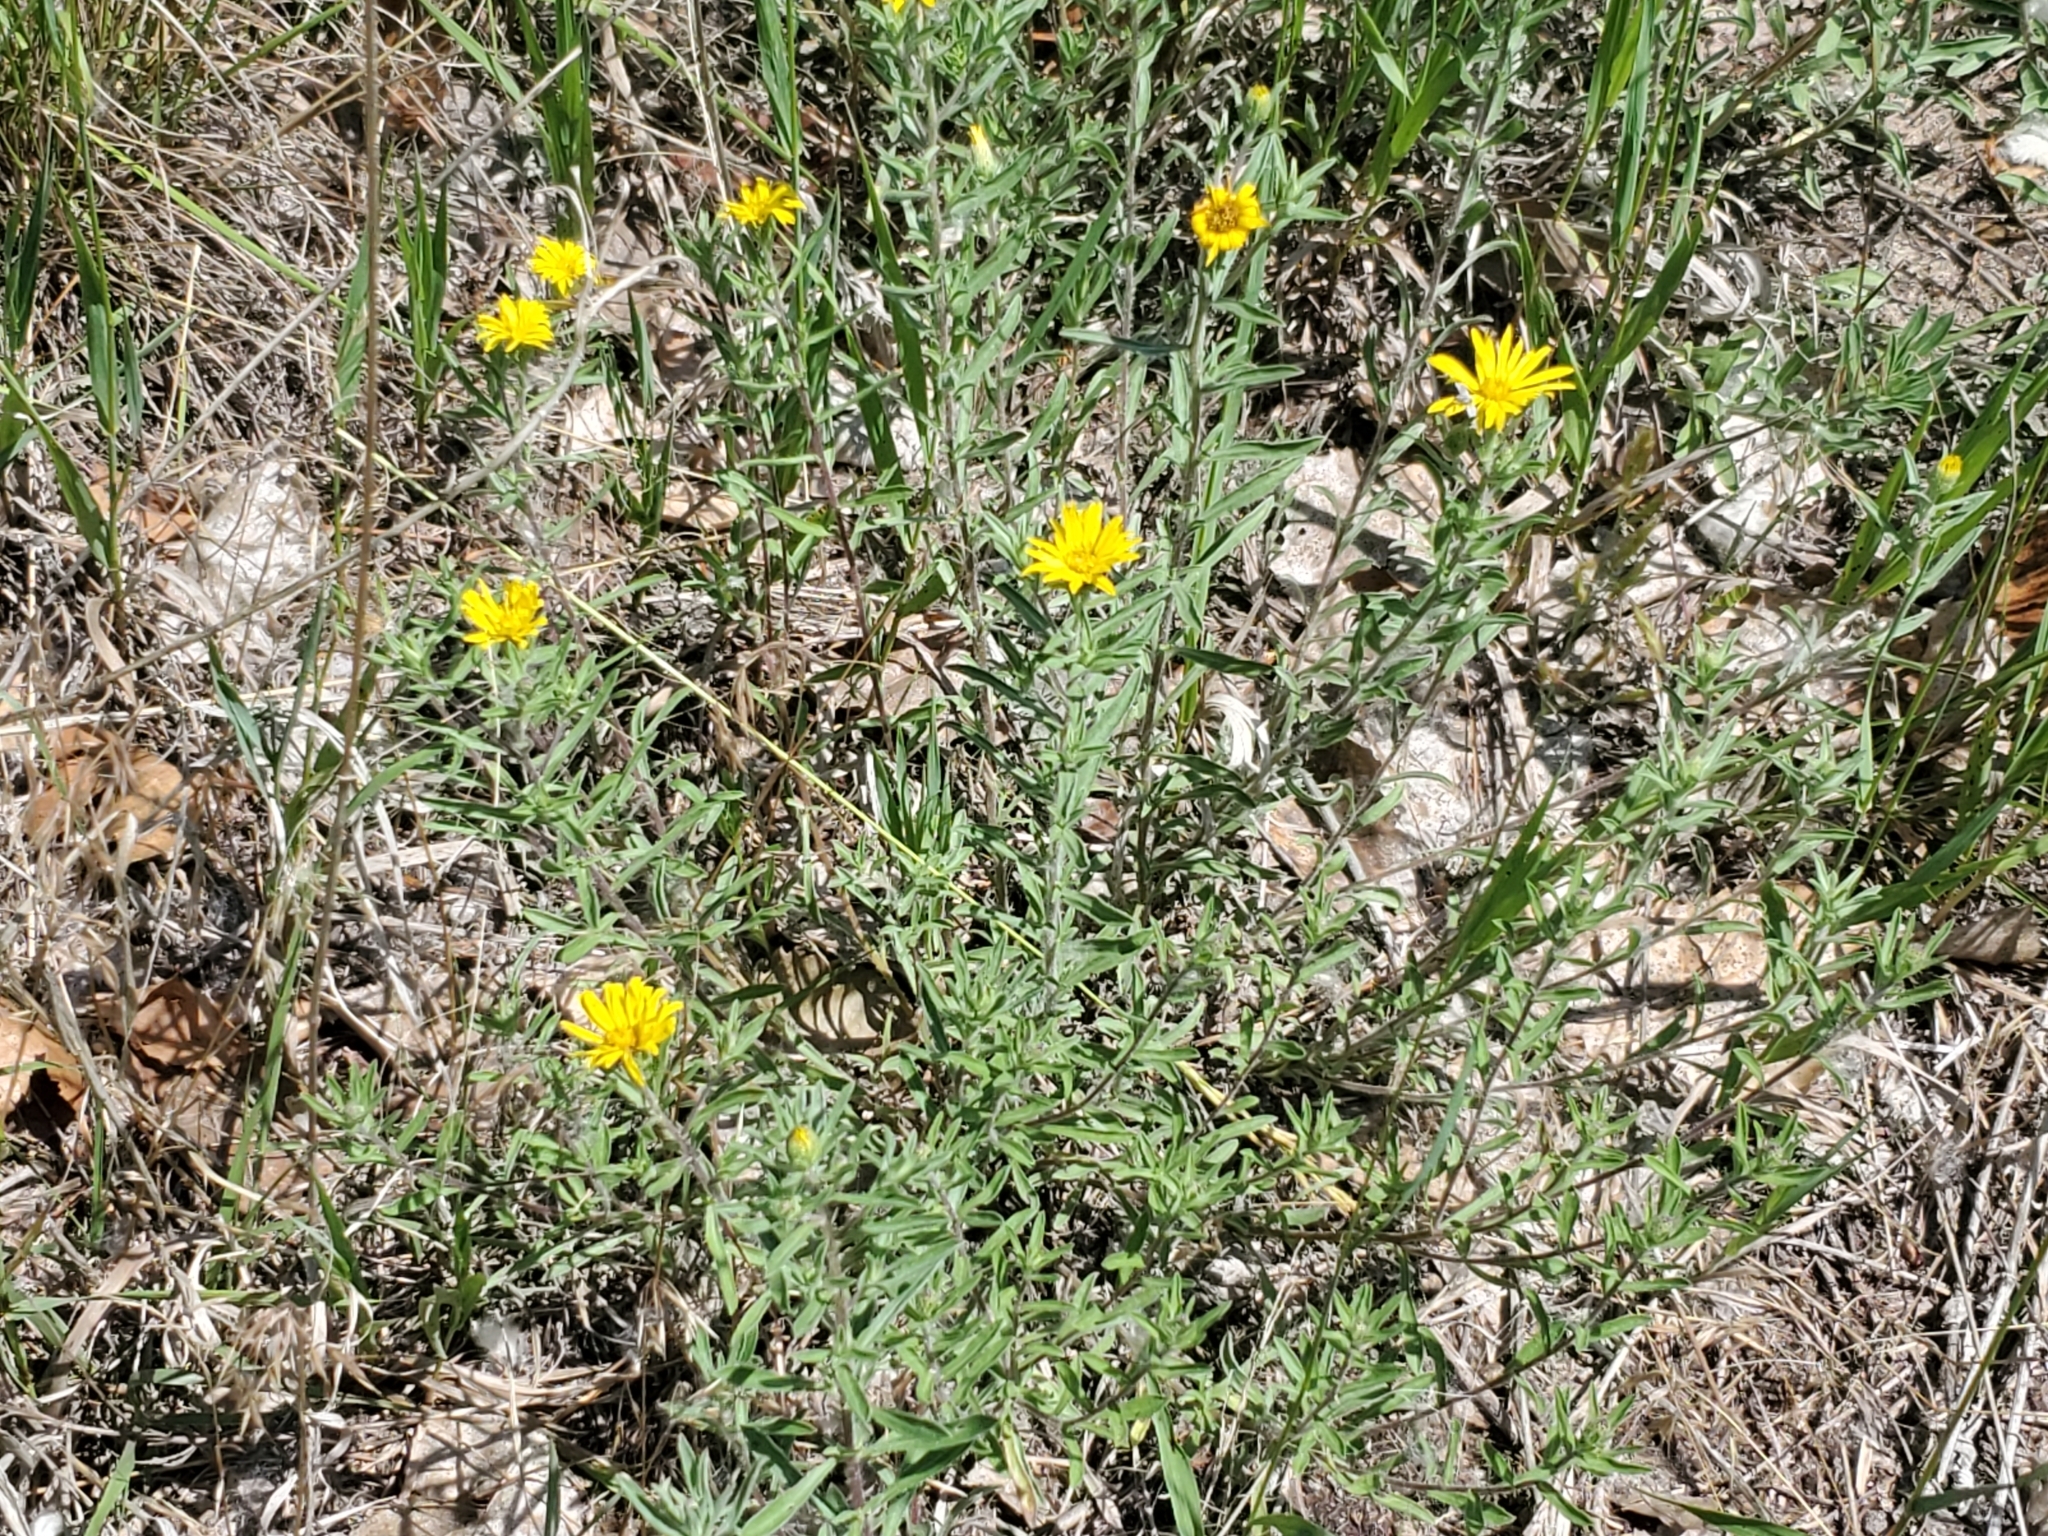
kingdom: Plantae
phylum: Tracheophyta
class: Magnoliopsida
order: Asterales
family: Asteraceae
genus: Heterotheca
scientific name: Heterotheca villosa
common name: Hairy false goldenaster
